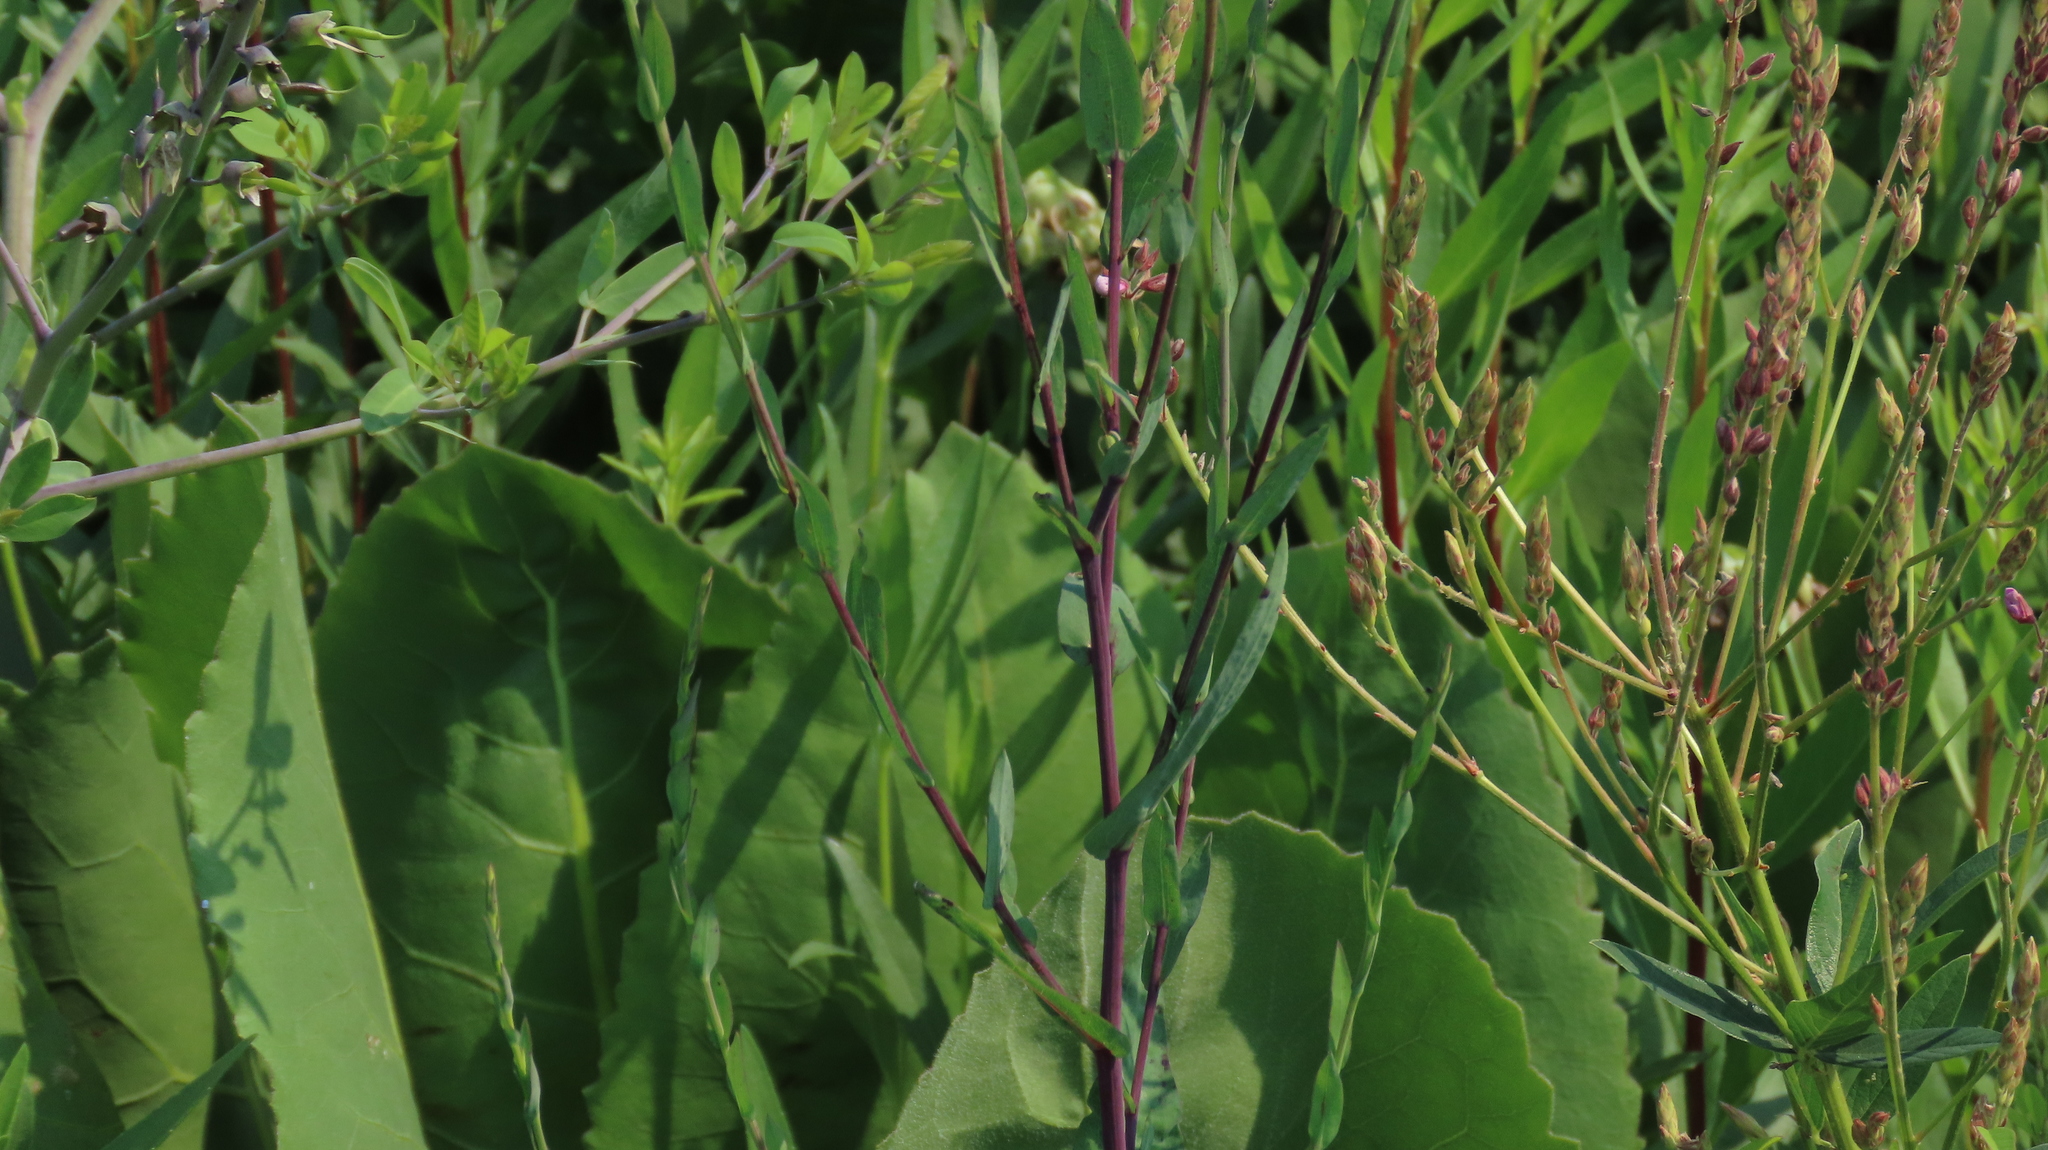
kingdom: Plantae
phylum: Tracheophyta
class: Magnoliopsida
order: Asterales
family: Asteraceae
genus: Symphyotrichum
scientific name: Symphyotrichum laeve
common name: Glaucous aster
